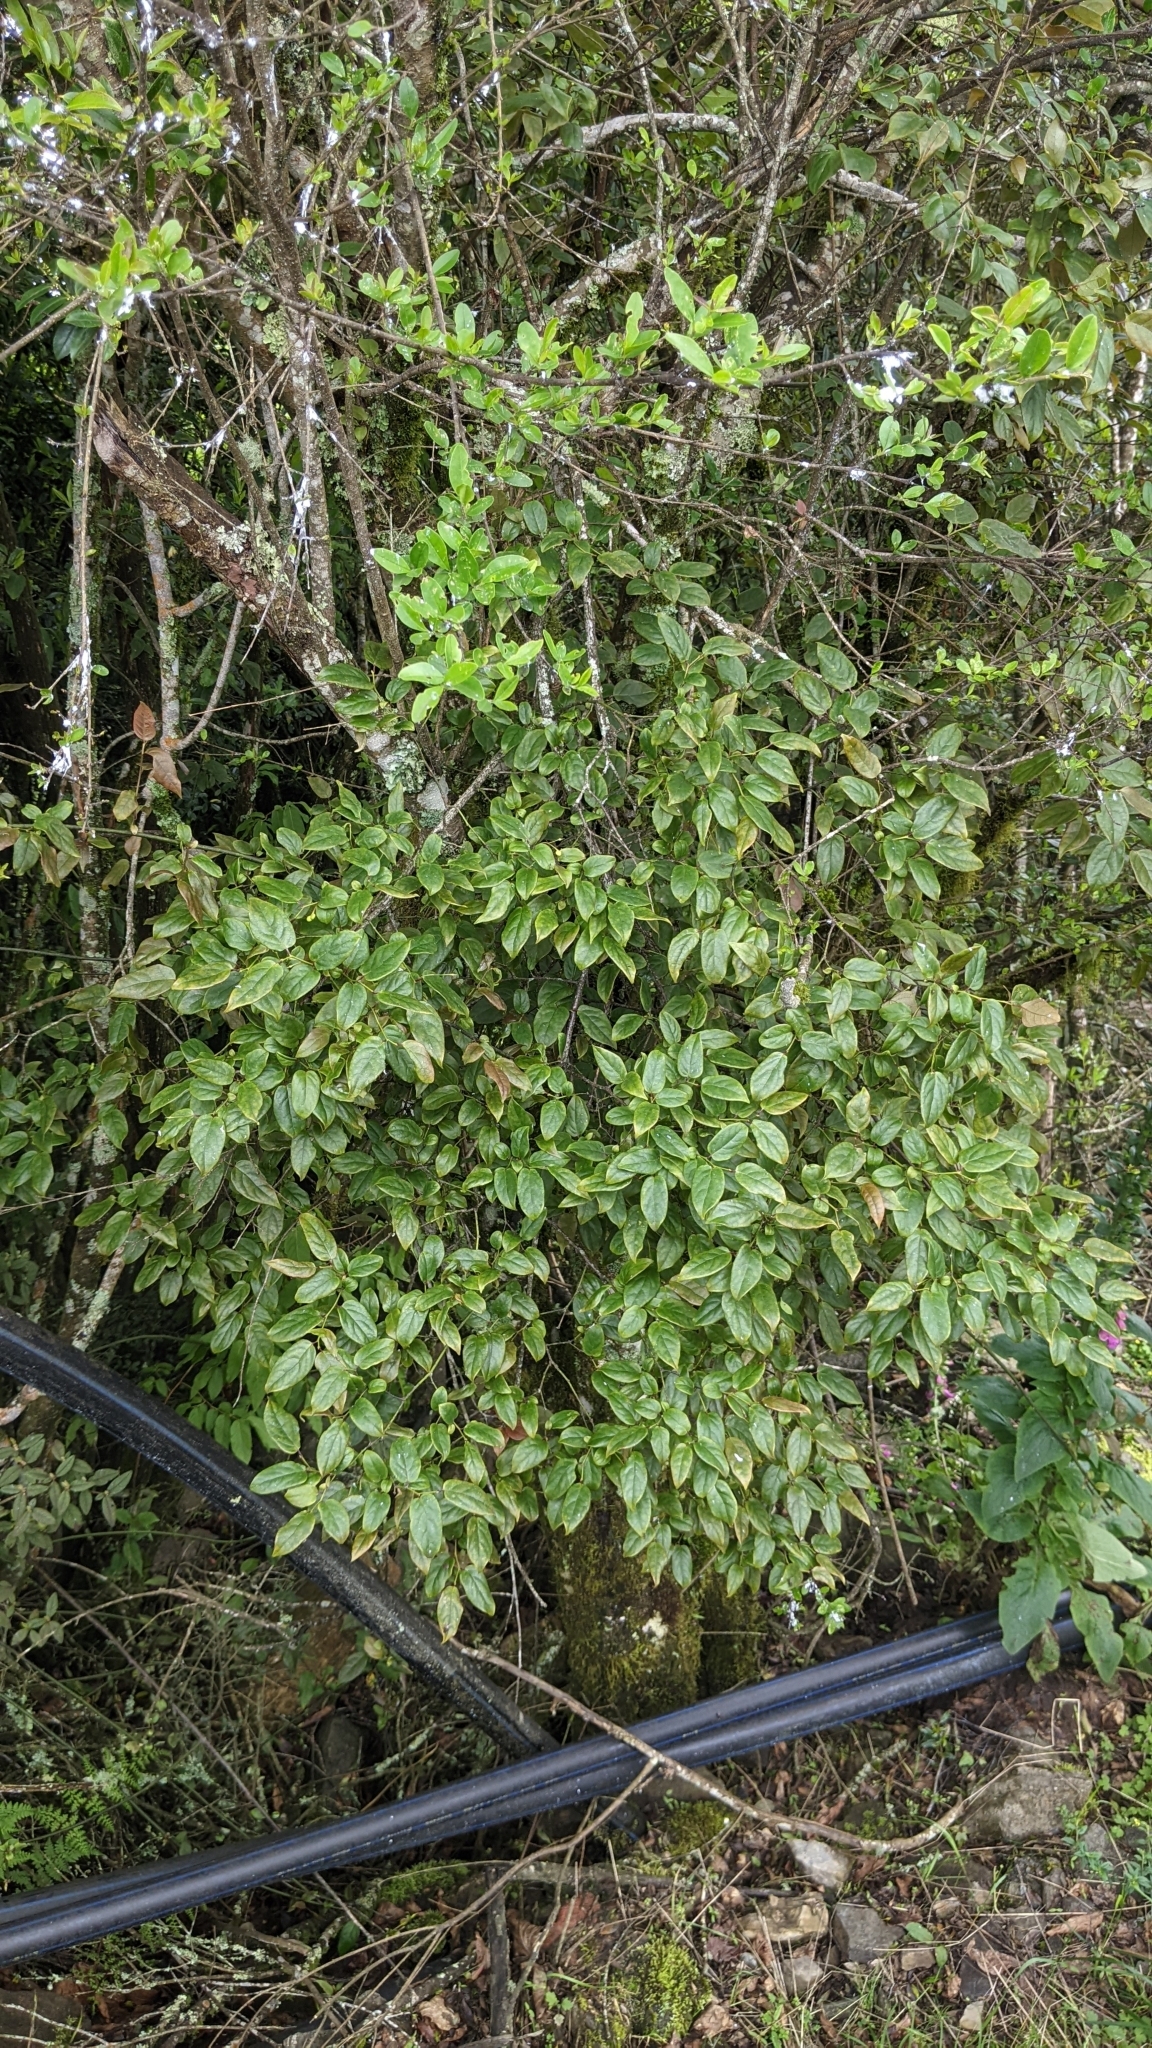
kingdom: Plantae
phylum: Tracheophyta
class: Magnoliopsida
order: Proteales
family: Sabiaceae
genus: Sabia
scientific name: Sabia transarisanensis
